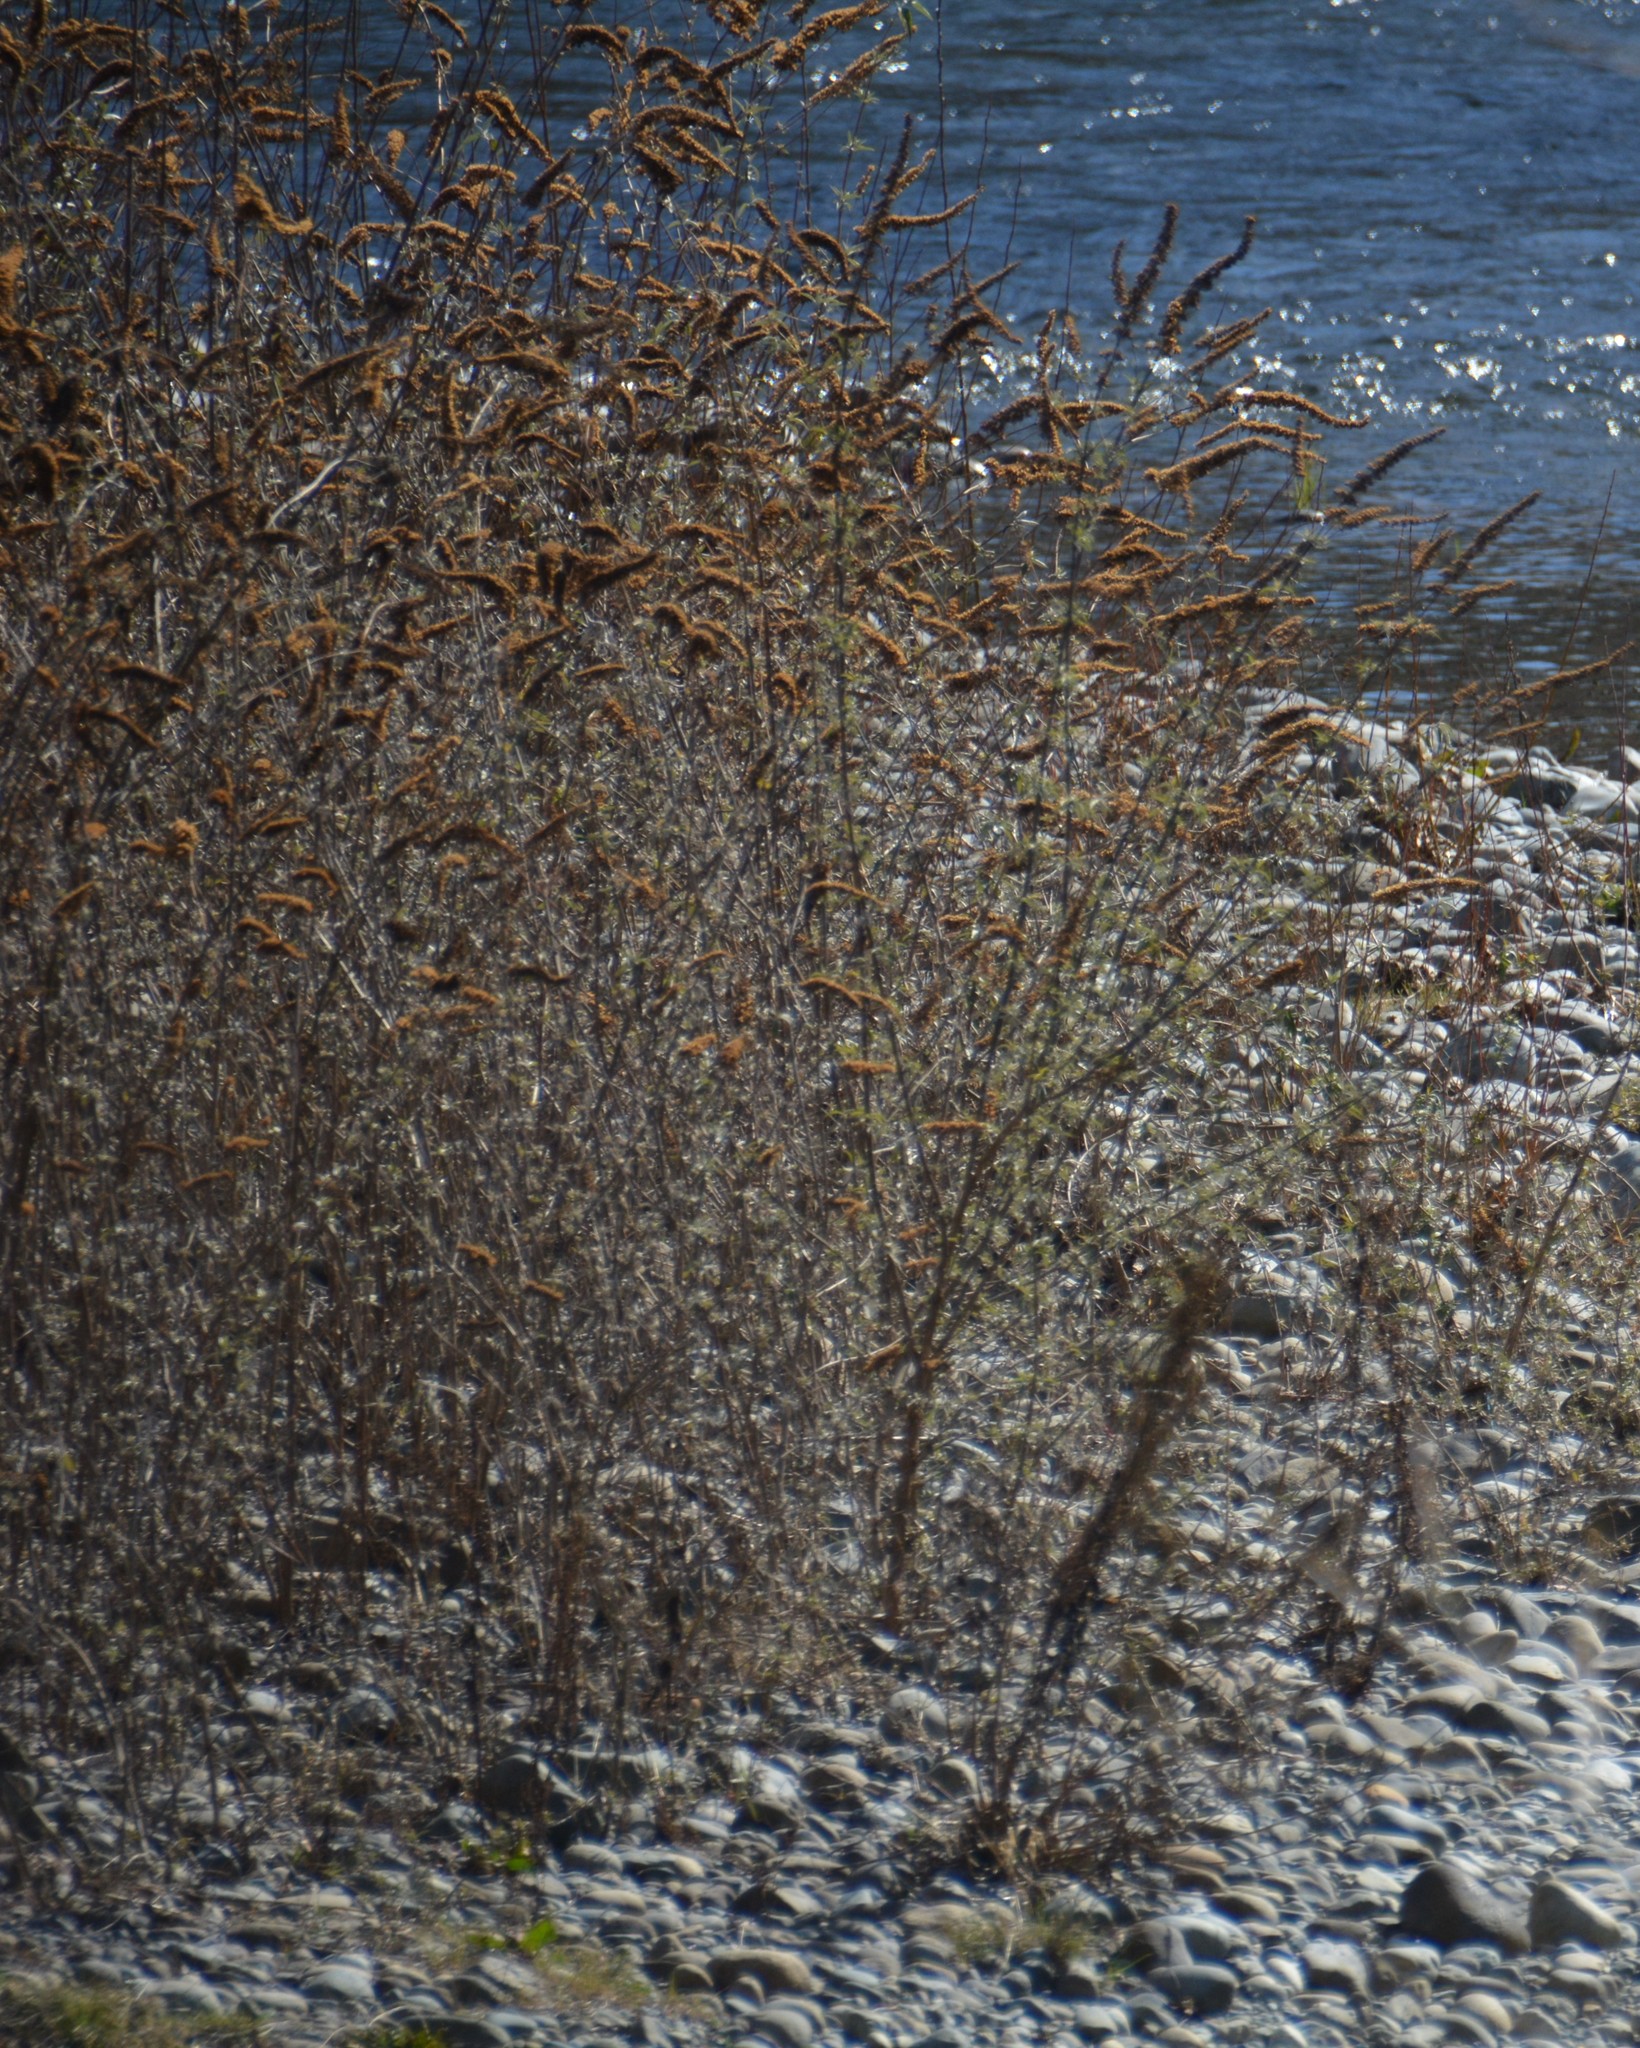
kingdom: Plantae
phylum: Tracheophyta
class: Magnoliopsida
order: Lamiales
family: Scrophulariaceae
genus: Buddleja
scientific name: Buddleja davidii
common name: Butterfly-bush
